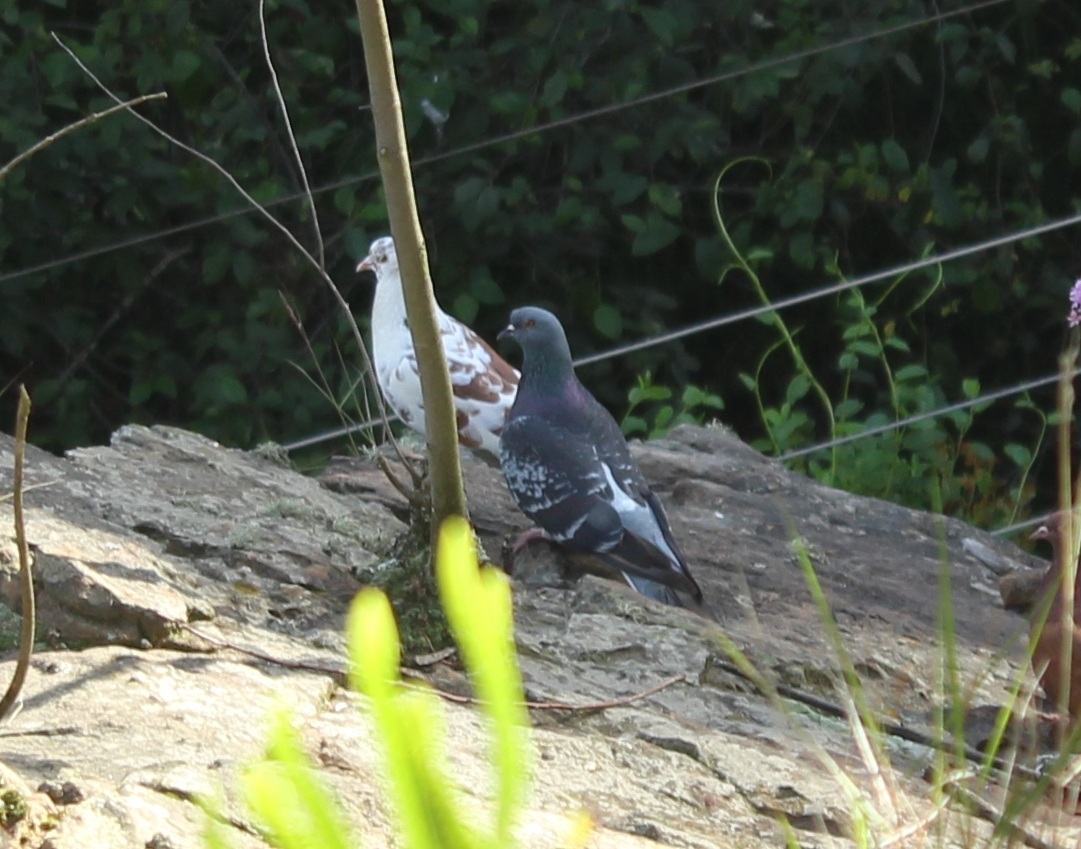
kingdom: Animalia
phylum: Chordata
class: Aves
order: Columbiformes
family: Columbidae
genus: Columba
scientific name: Columba livia
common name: Rock pigeon
